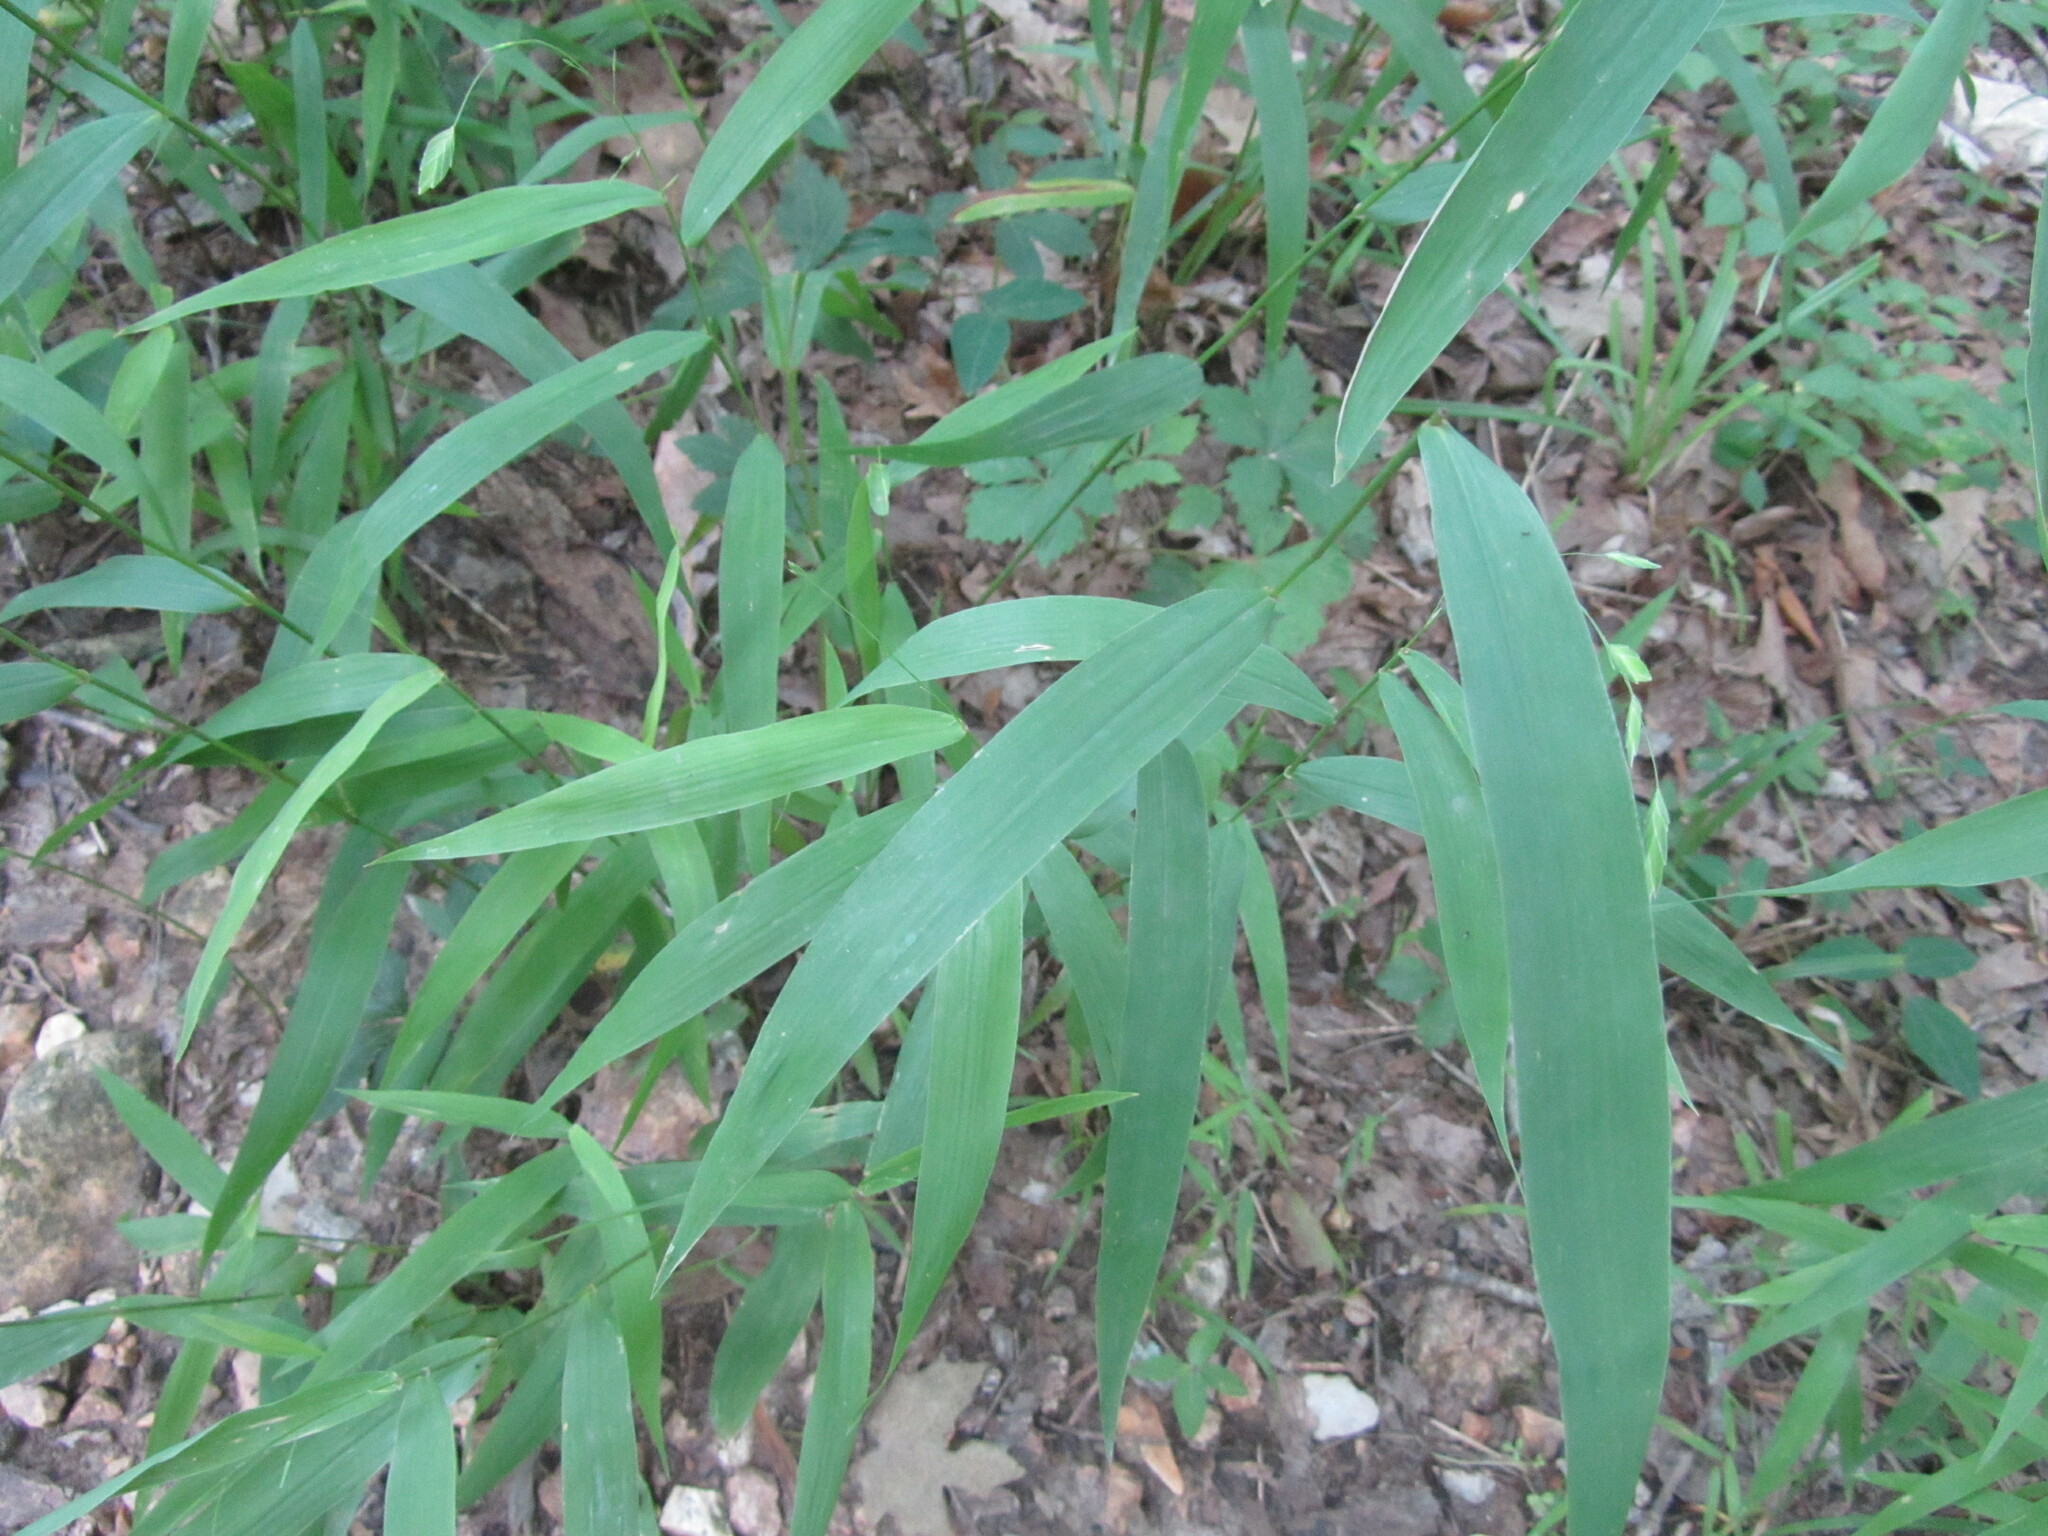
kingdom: Plantae
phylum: Tracheophyta
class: Liliopsida
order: Poales
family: Poaceae
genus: Chasmanthium
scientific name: Chasmanthium latifolium
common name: Broad-leaved chasmanthium
